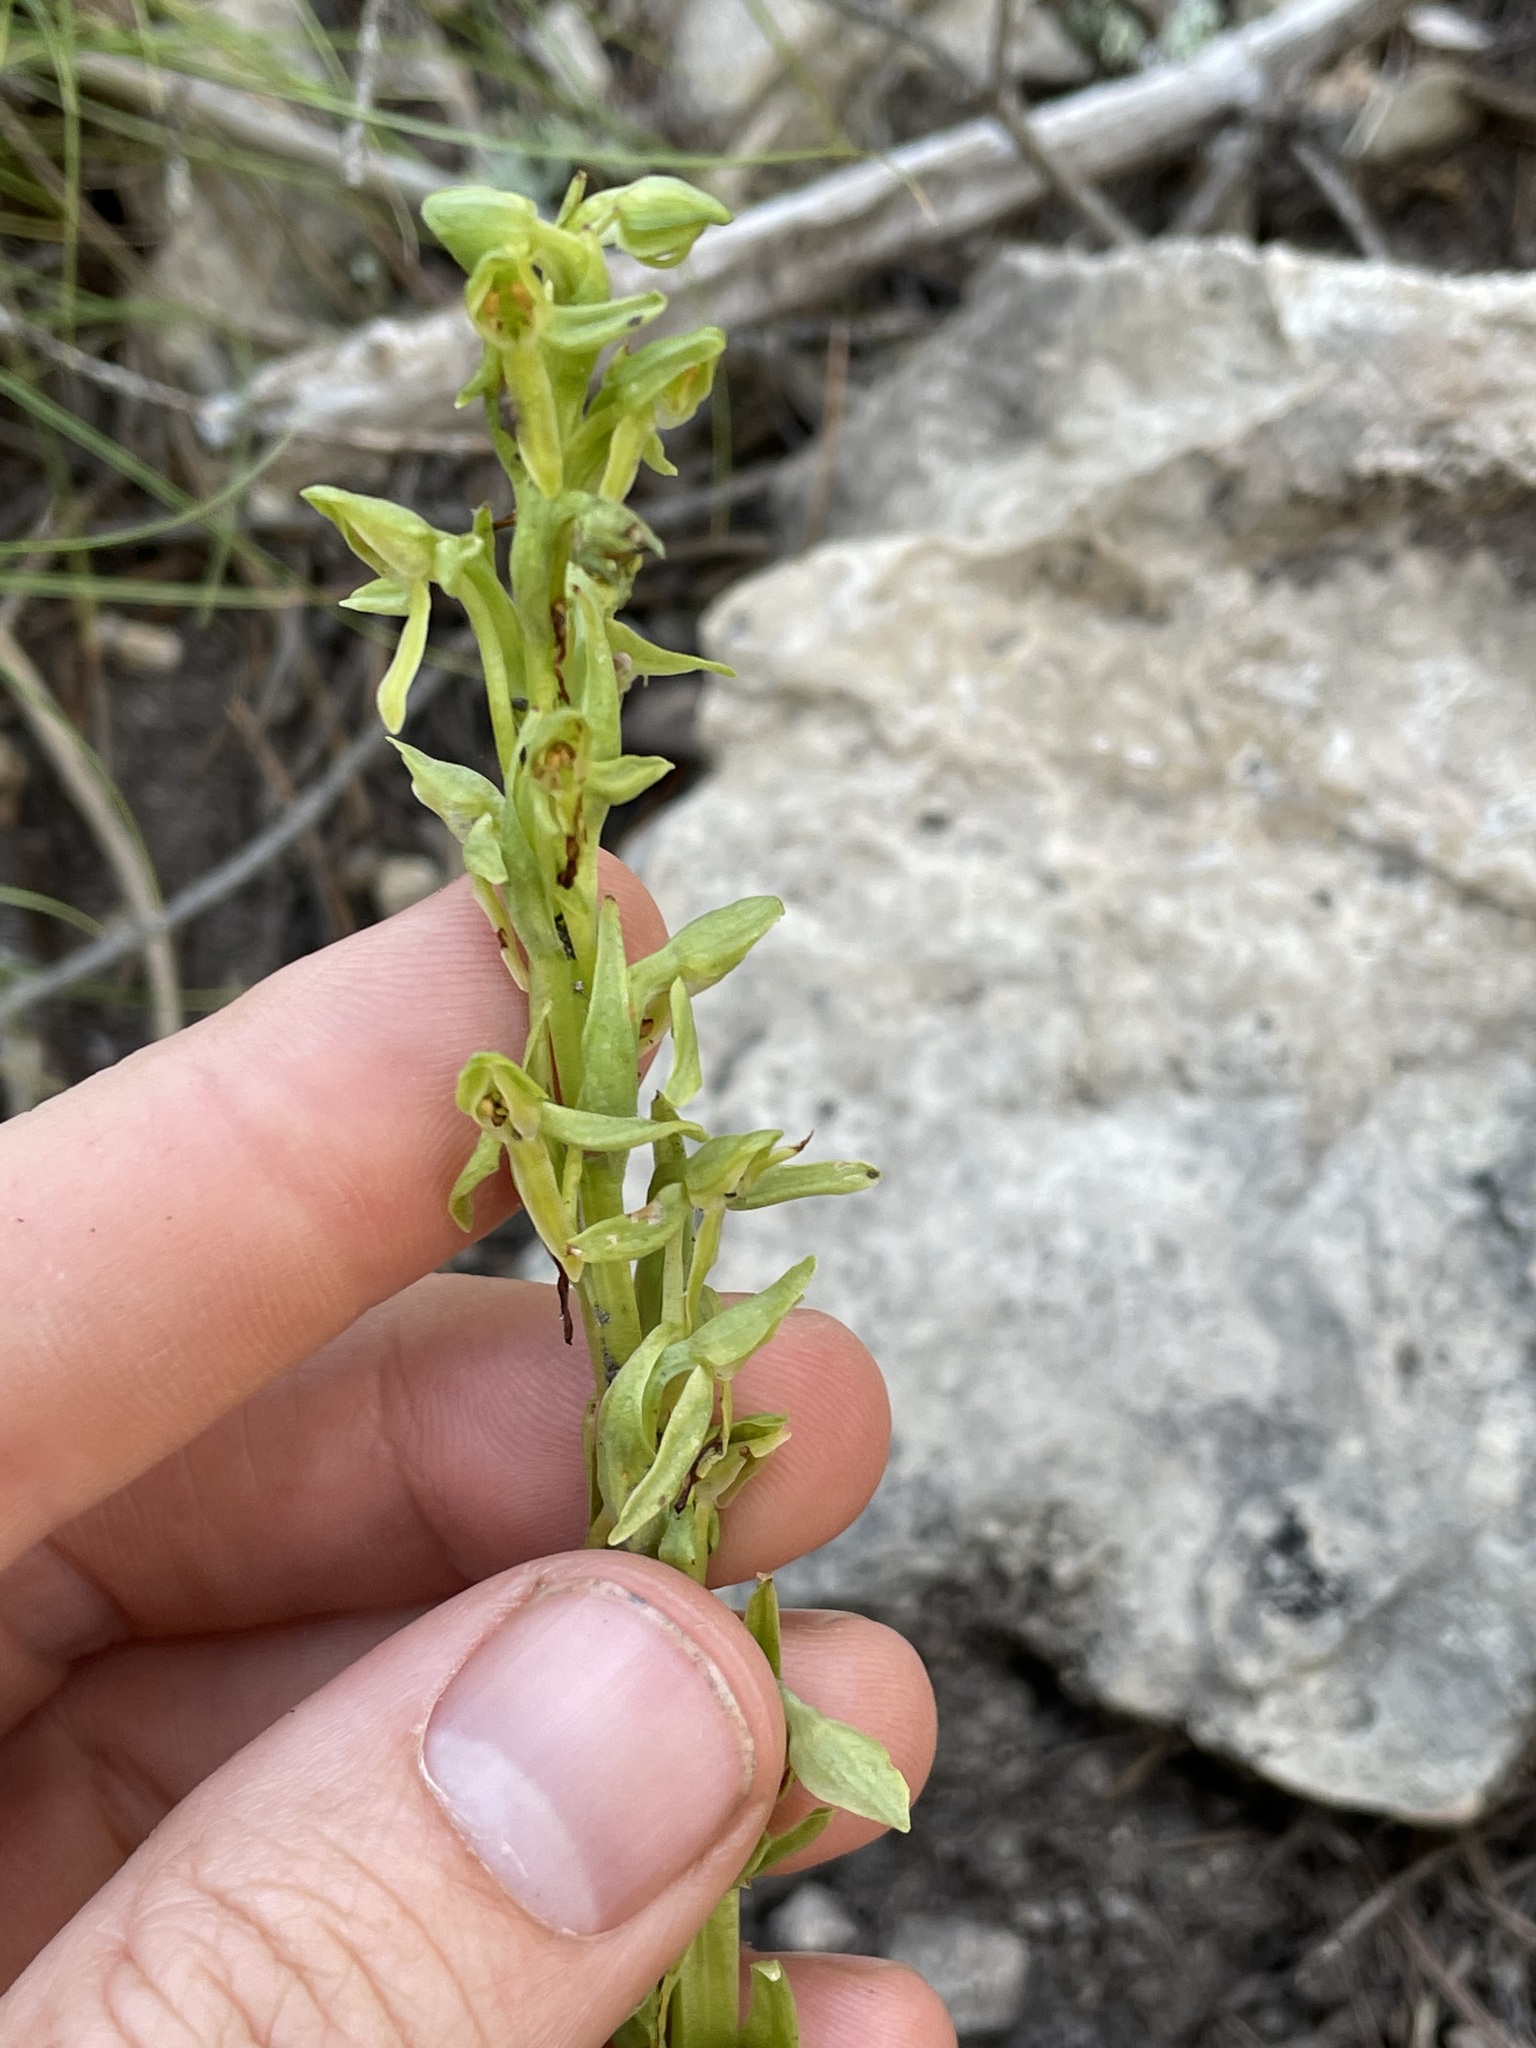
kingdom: Plantae
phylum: Tracheophyta
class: Liliopsida
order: Asparagales
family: Orchidaceae
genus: Platanthera
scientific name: Platanthera brevifolia
